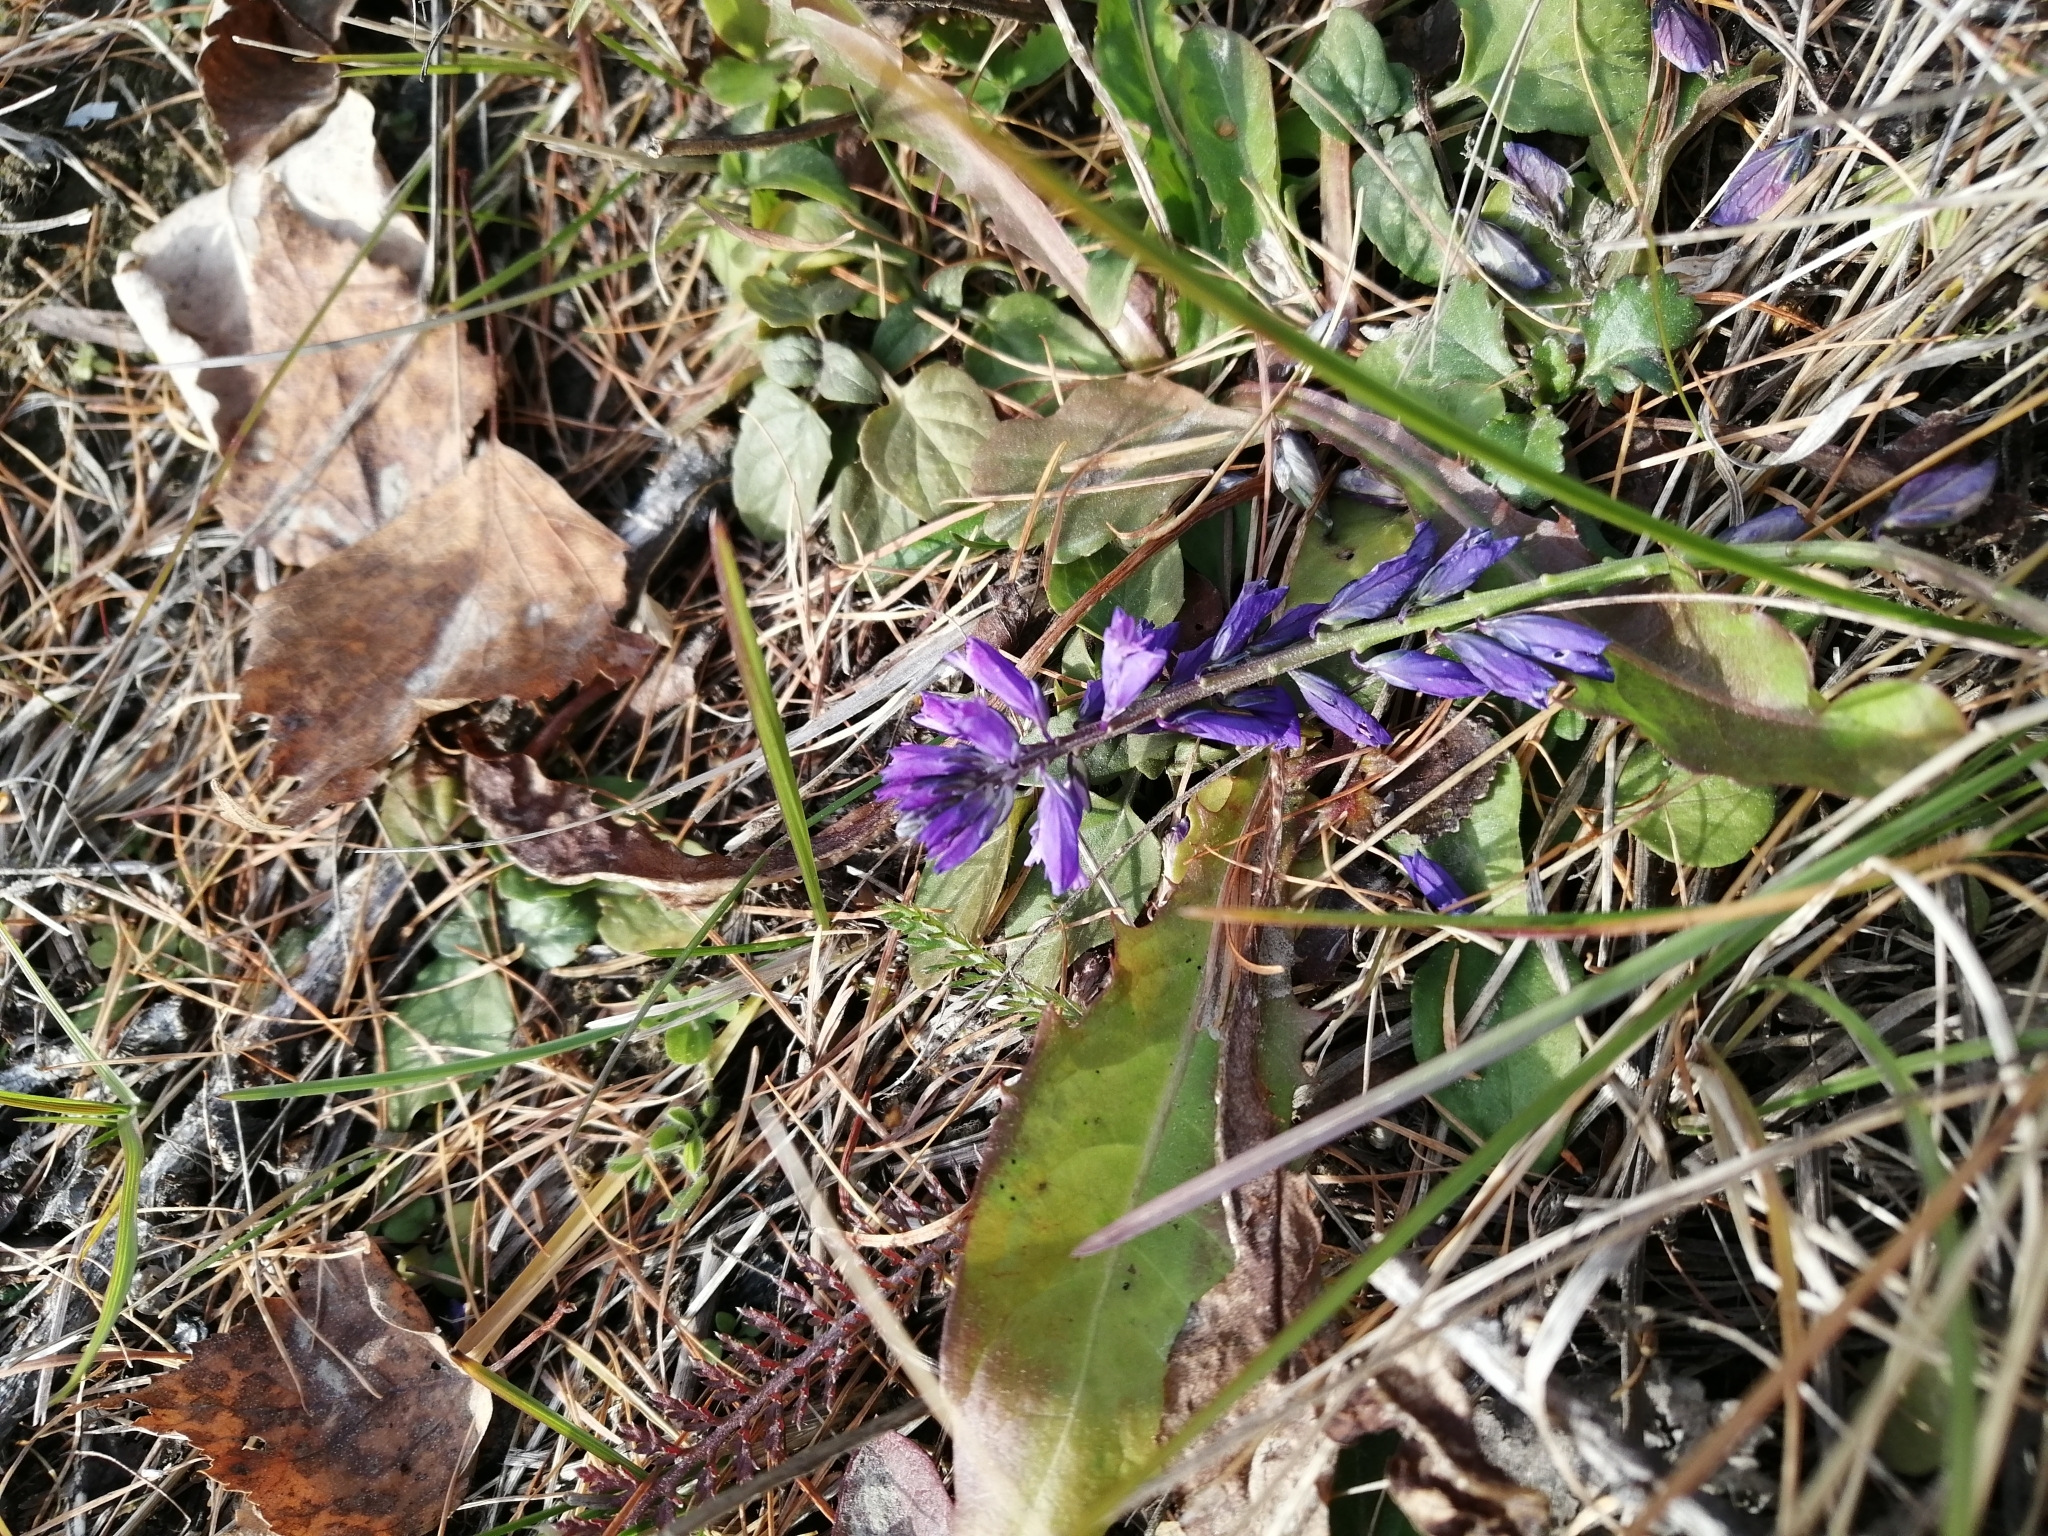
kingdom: Plantae
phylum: Tracheophyta
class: Magnoliopsida
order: Fabales
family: Polygalaceae
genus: Polygala
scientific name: Polygala comosa
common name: Tufted milkwort
